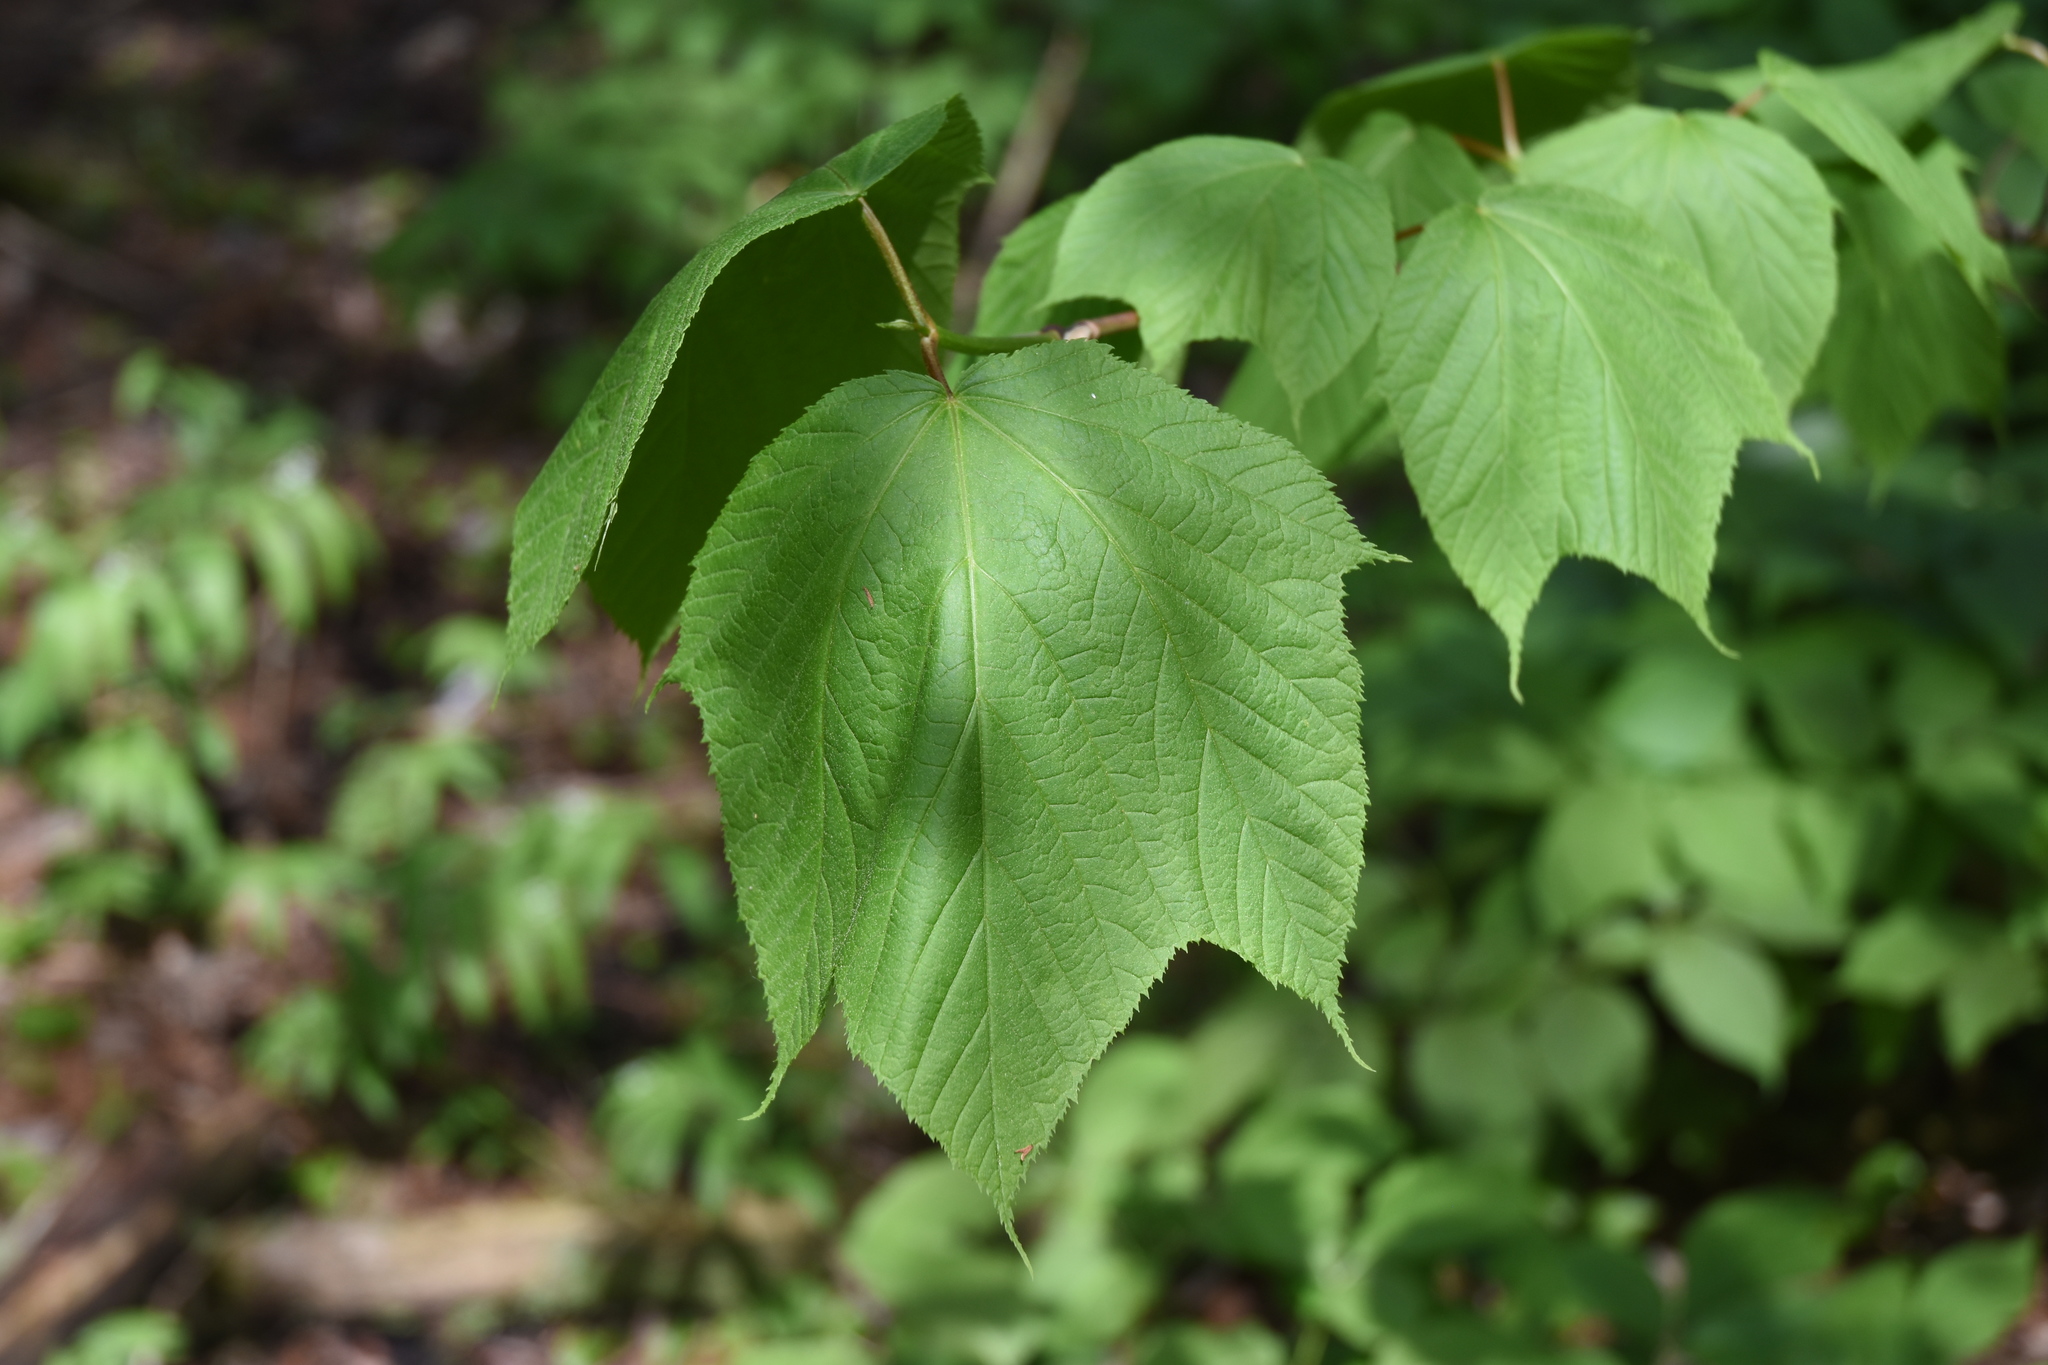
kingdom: Plantae
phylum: Tracheophyta
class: Magnoliopsida
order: Sapindales
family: Sapindaceae
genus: Acer
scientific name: Acer pensylvanicum
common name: Moosewood
